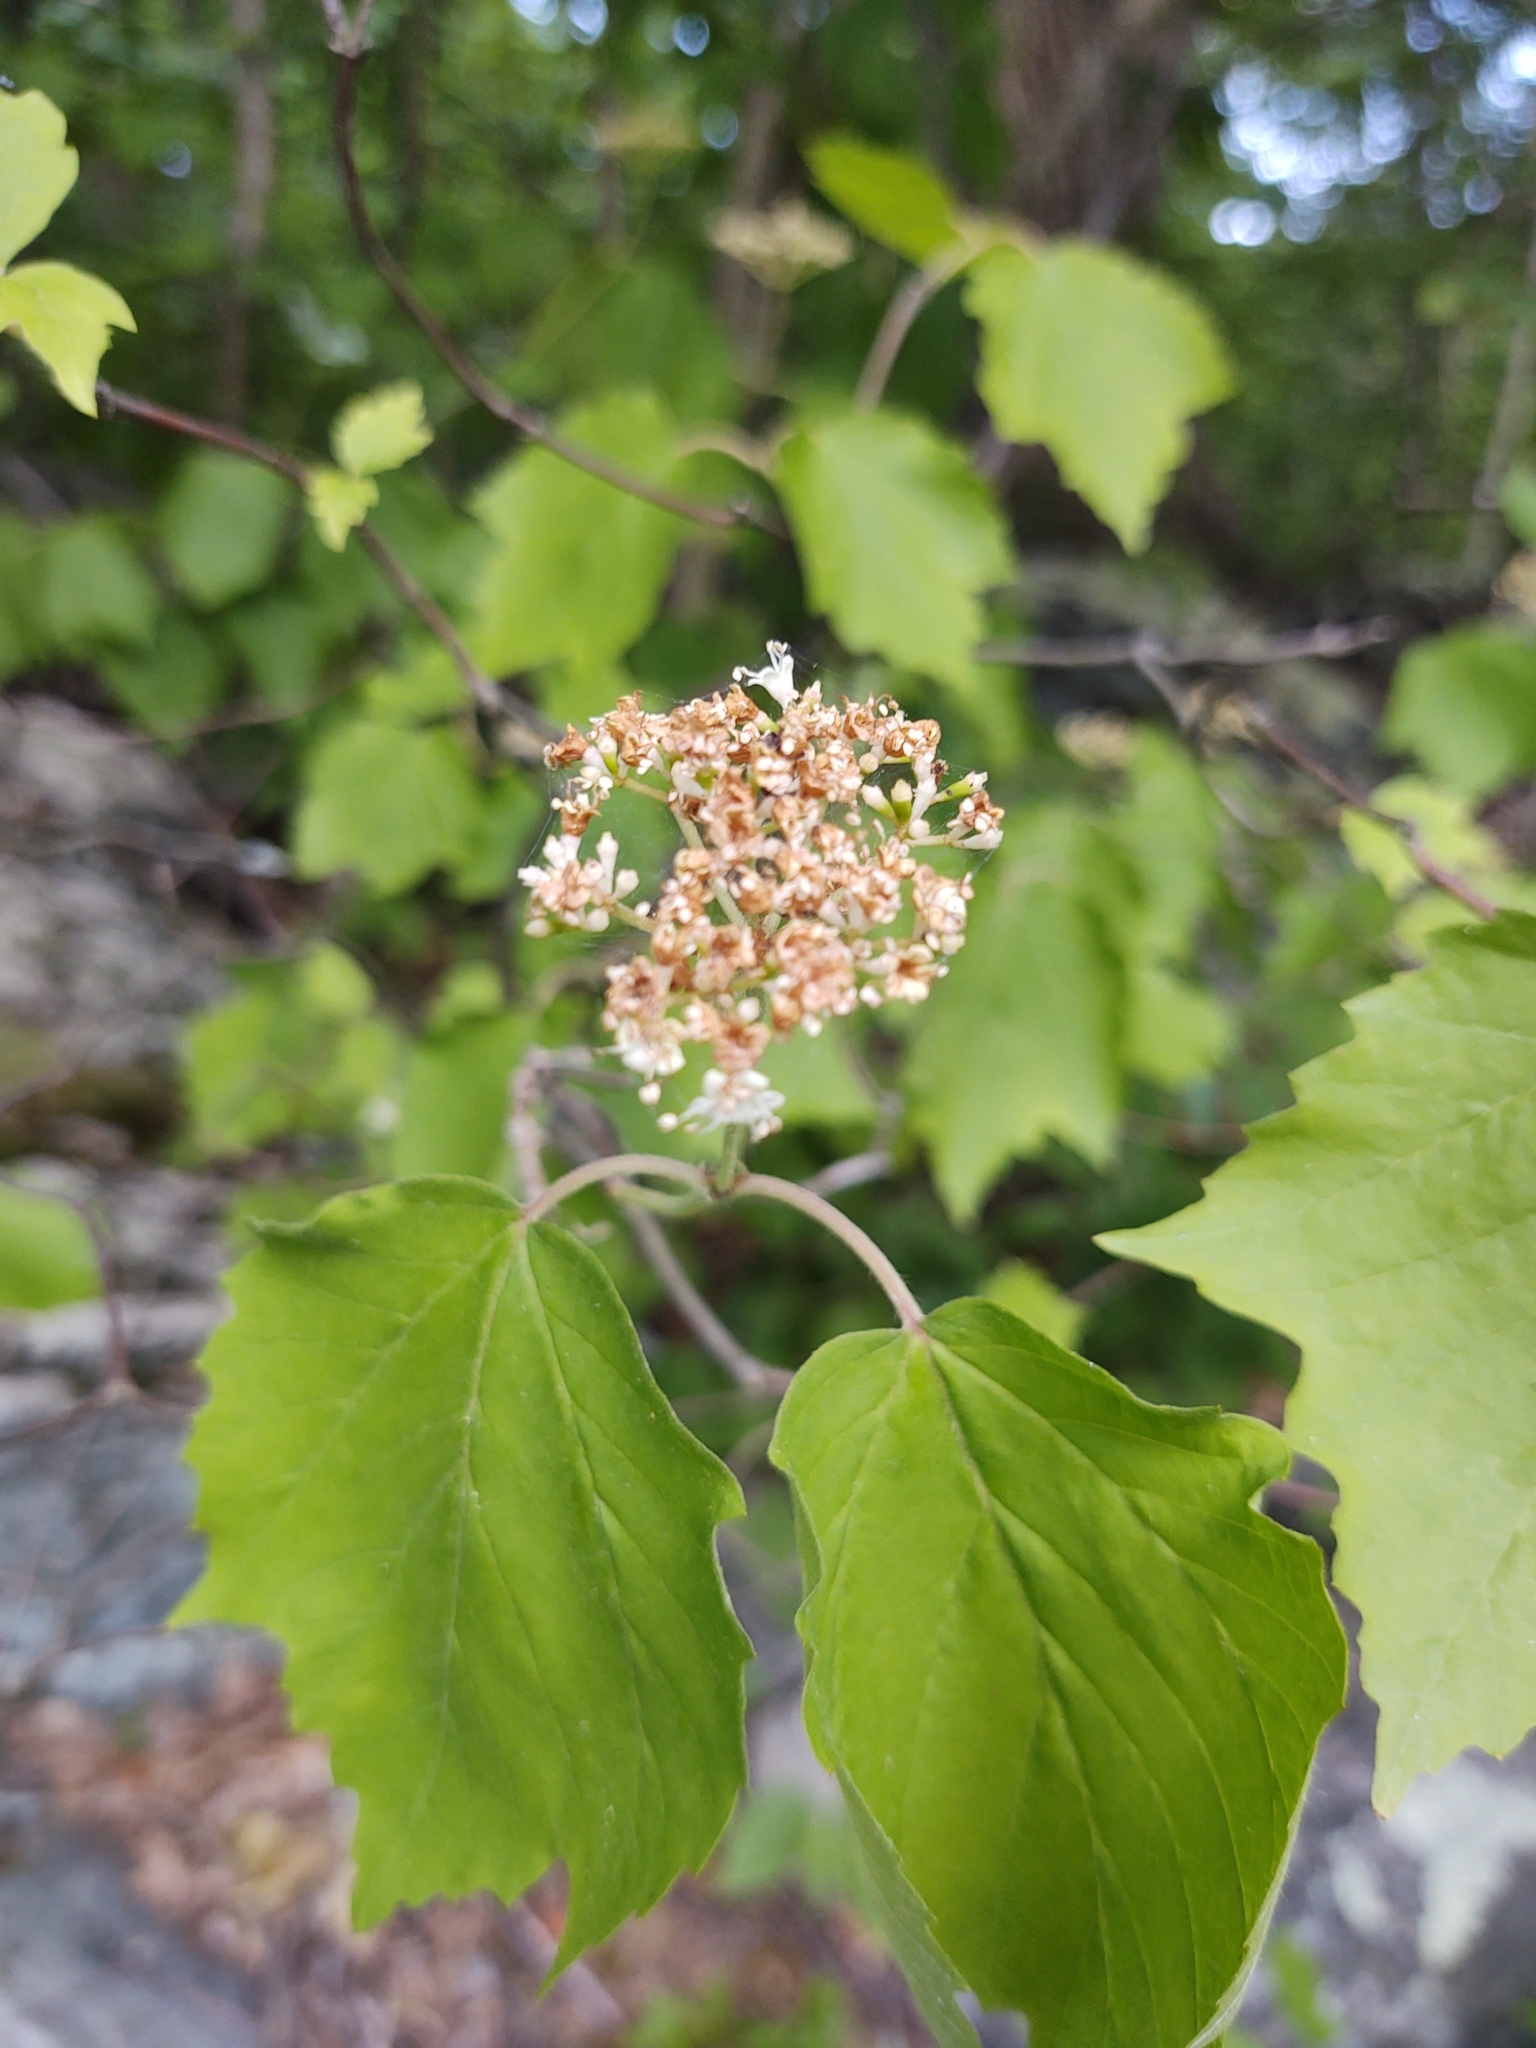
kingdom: Plantae
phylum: Tracheophyta
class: Magnoliopsida
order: Dipsacales
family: Viburnaceae
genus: Viburnum
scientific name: Viburnum acerifolium
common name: Dockmackie
